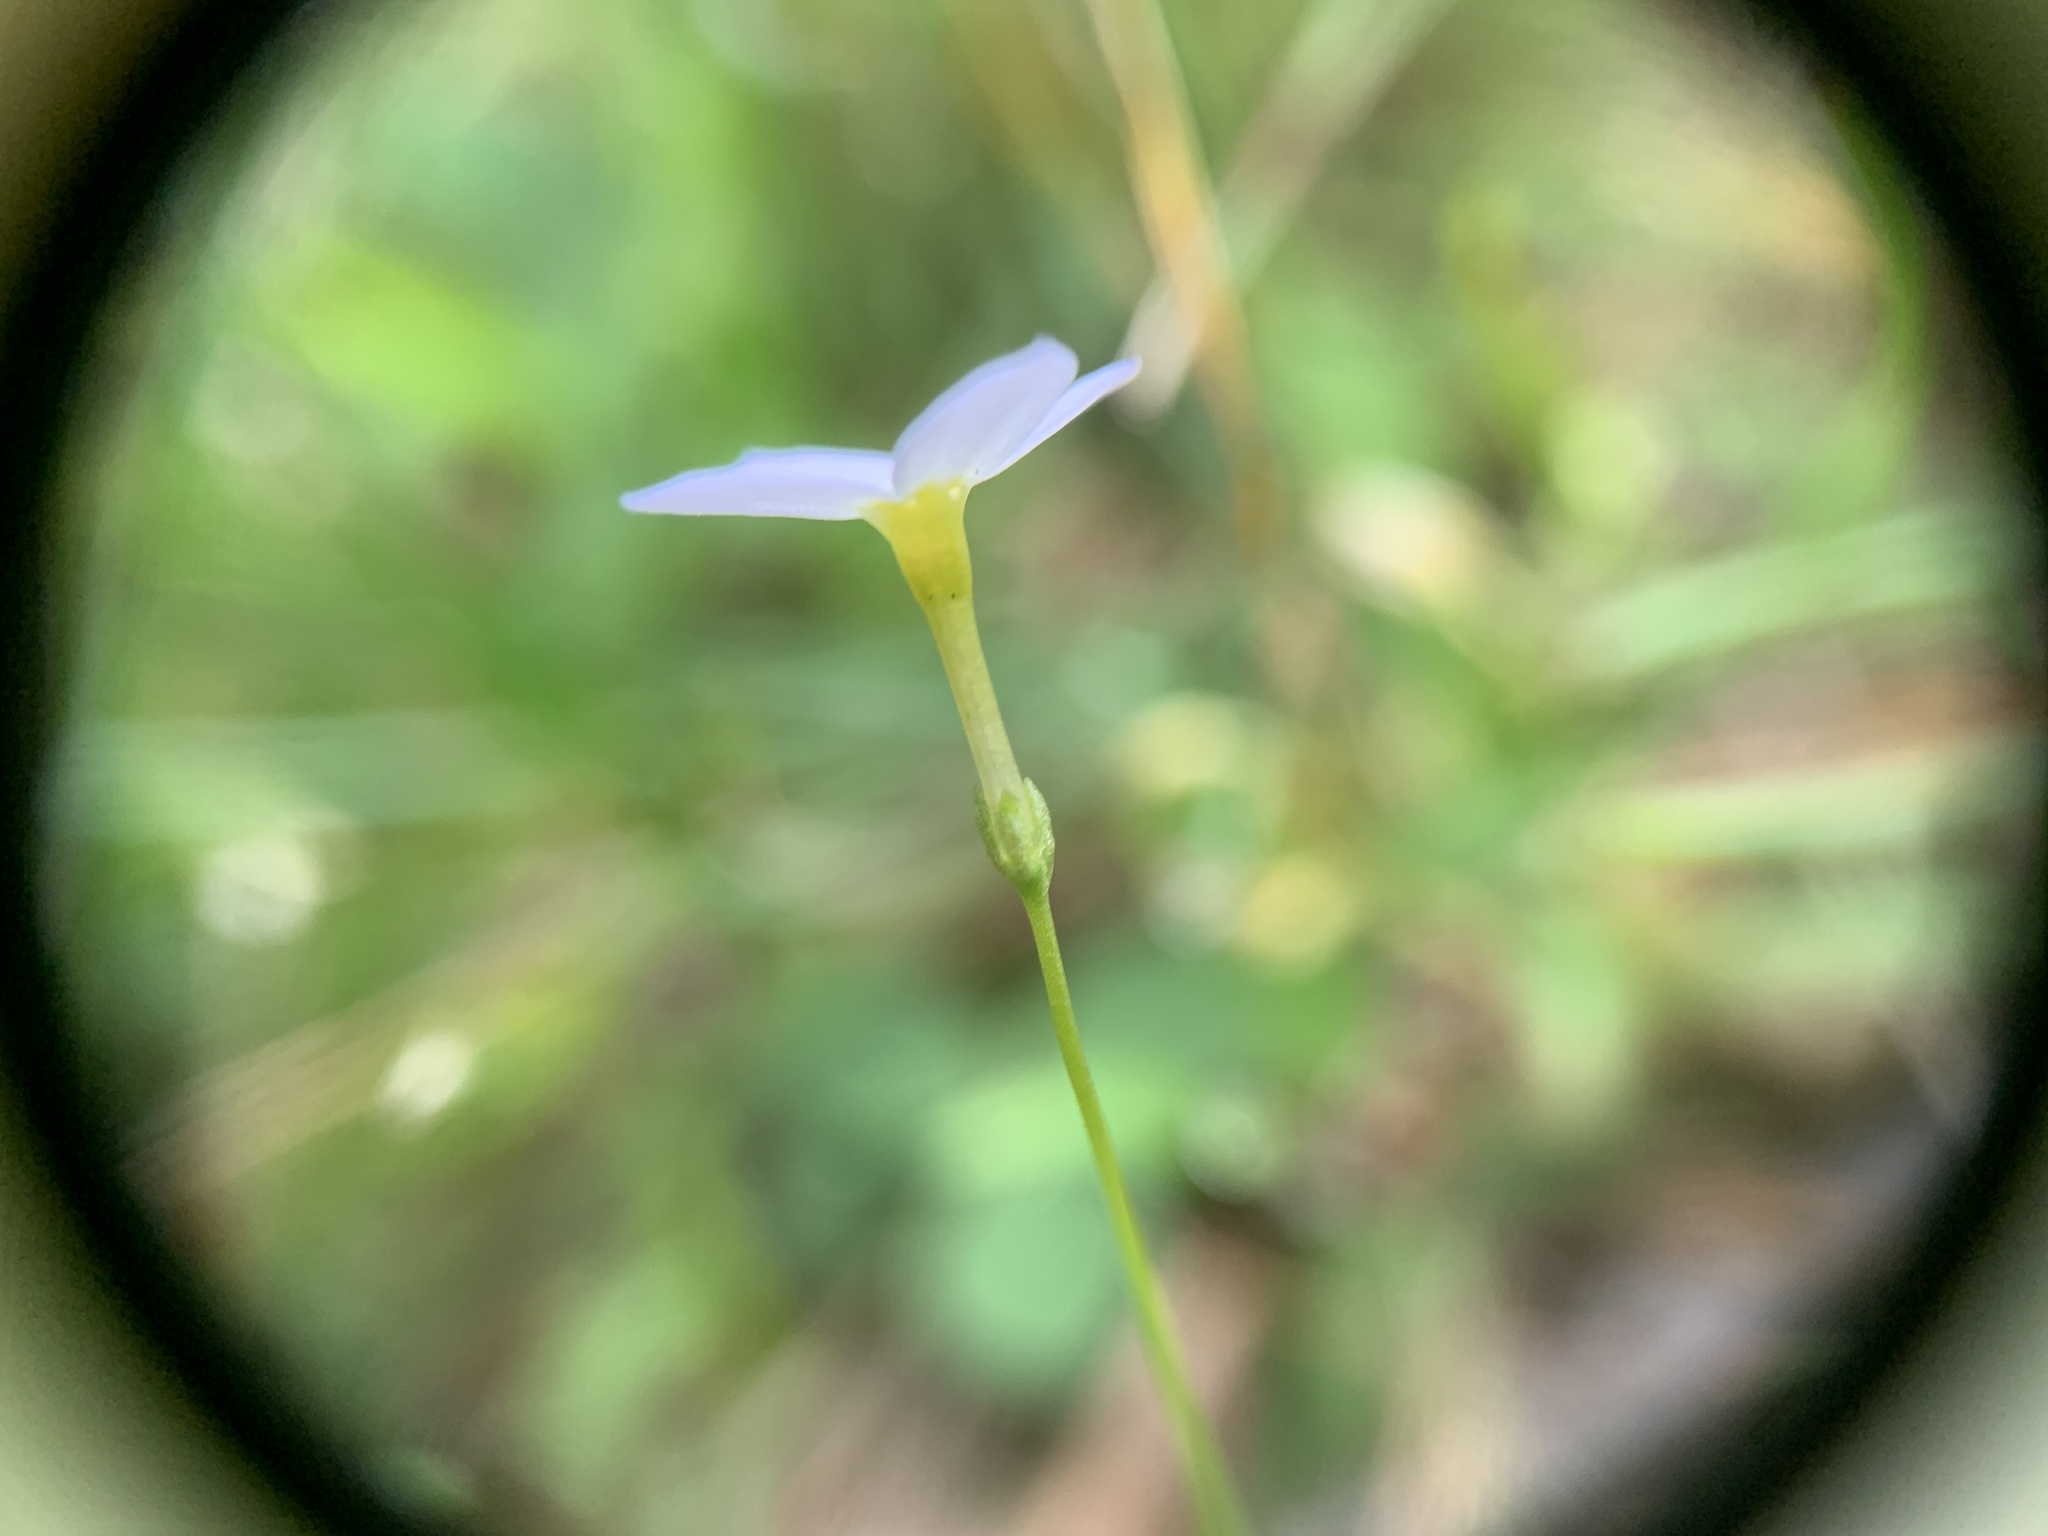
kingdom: Plantae
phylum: Tracheophyta
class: Magnoliopsida
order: Gentianales
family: Rubiaceae
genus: Houstonia
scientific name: Houstonia caerulea
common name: Bluets
